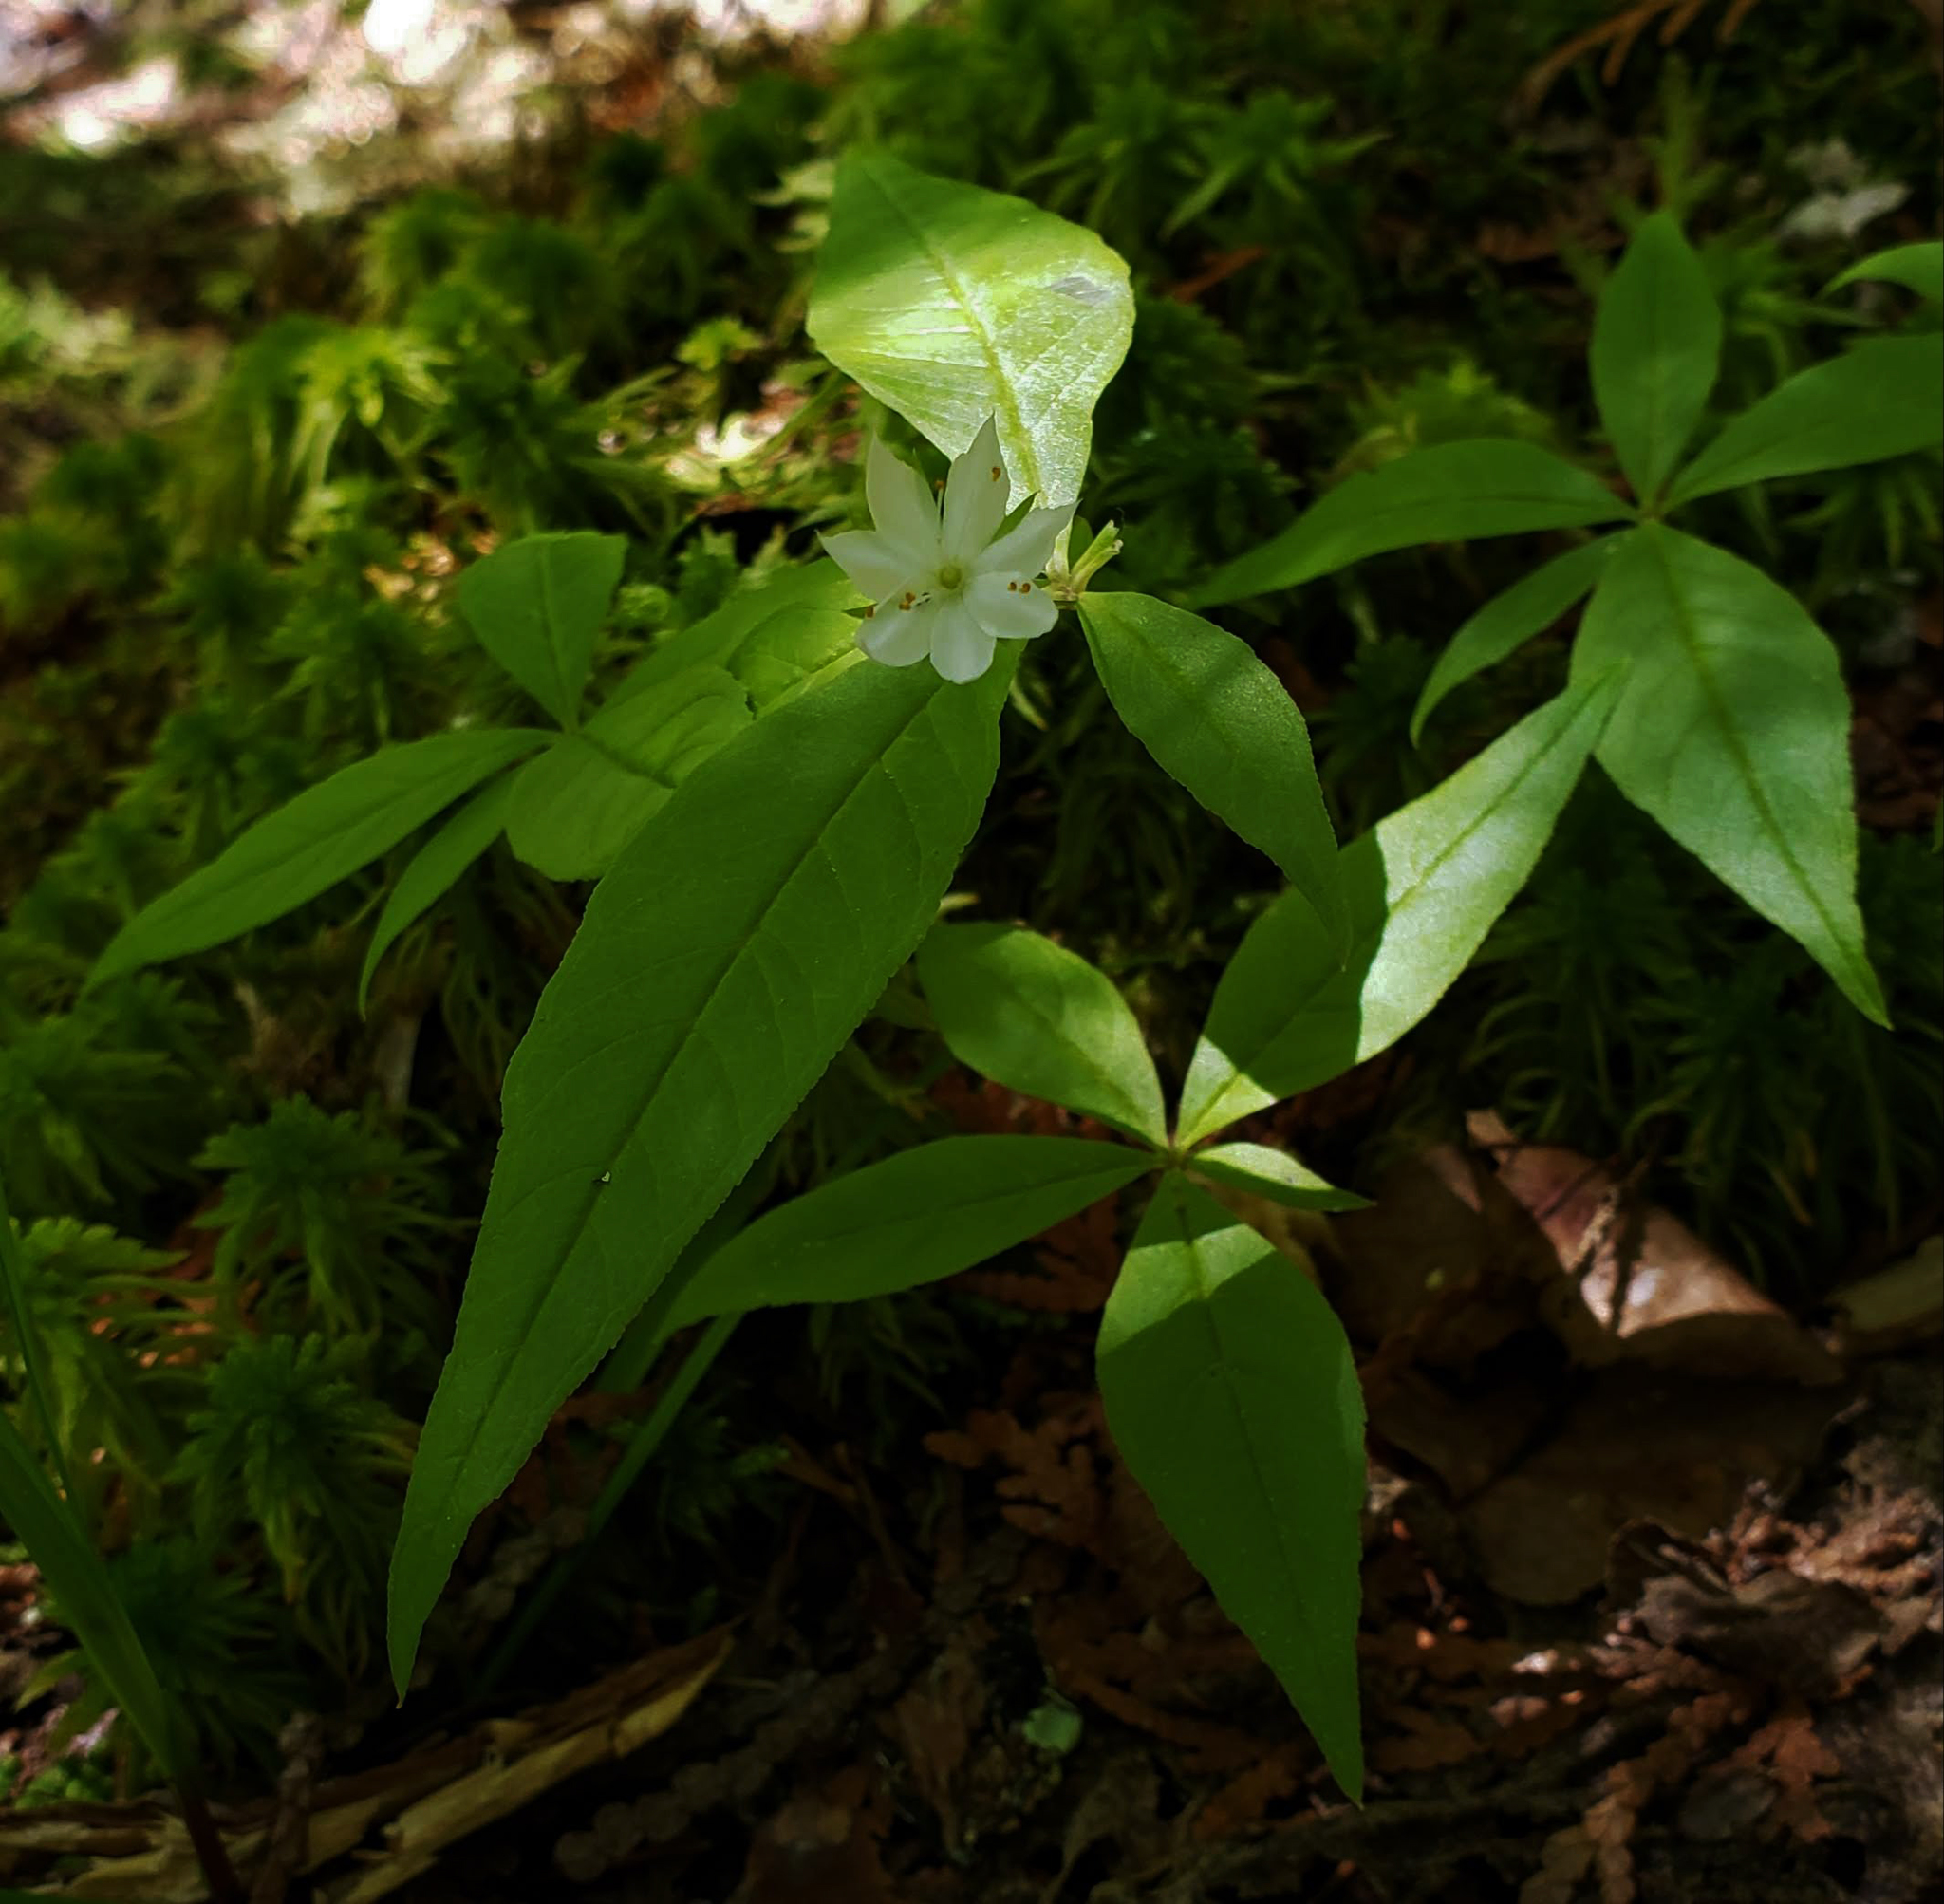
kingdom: Plantae
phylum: Tracheophyta
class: Magnoliopsida
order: Ericales
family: Primulaceae
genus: Lysimachia
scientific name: Lysimachia borealis
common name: American starflower
